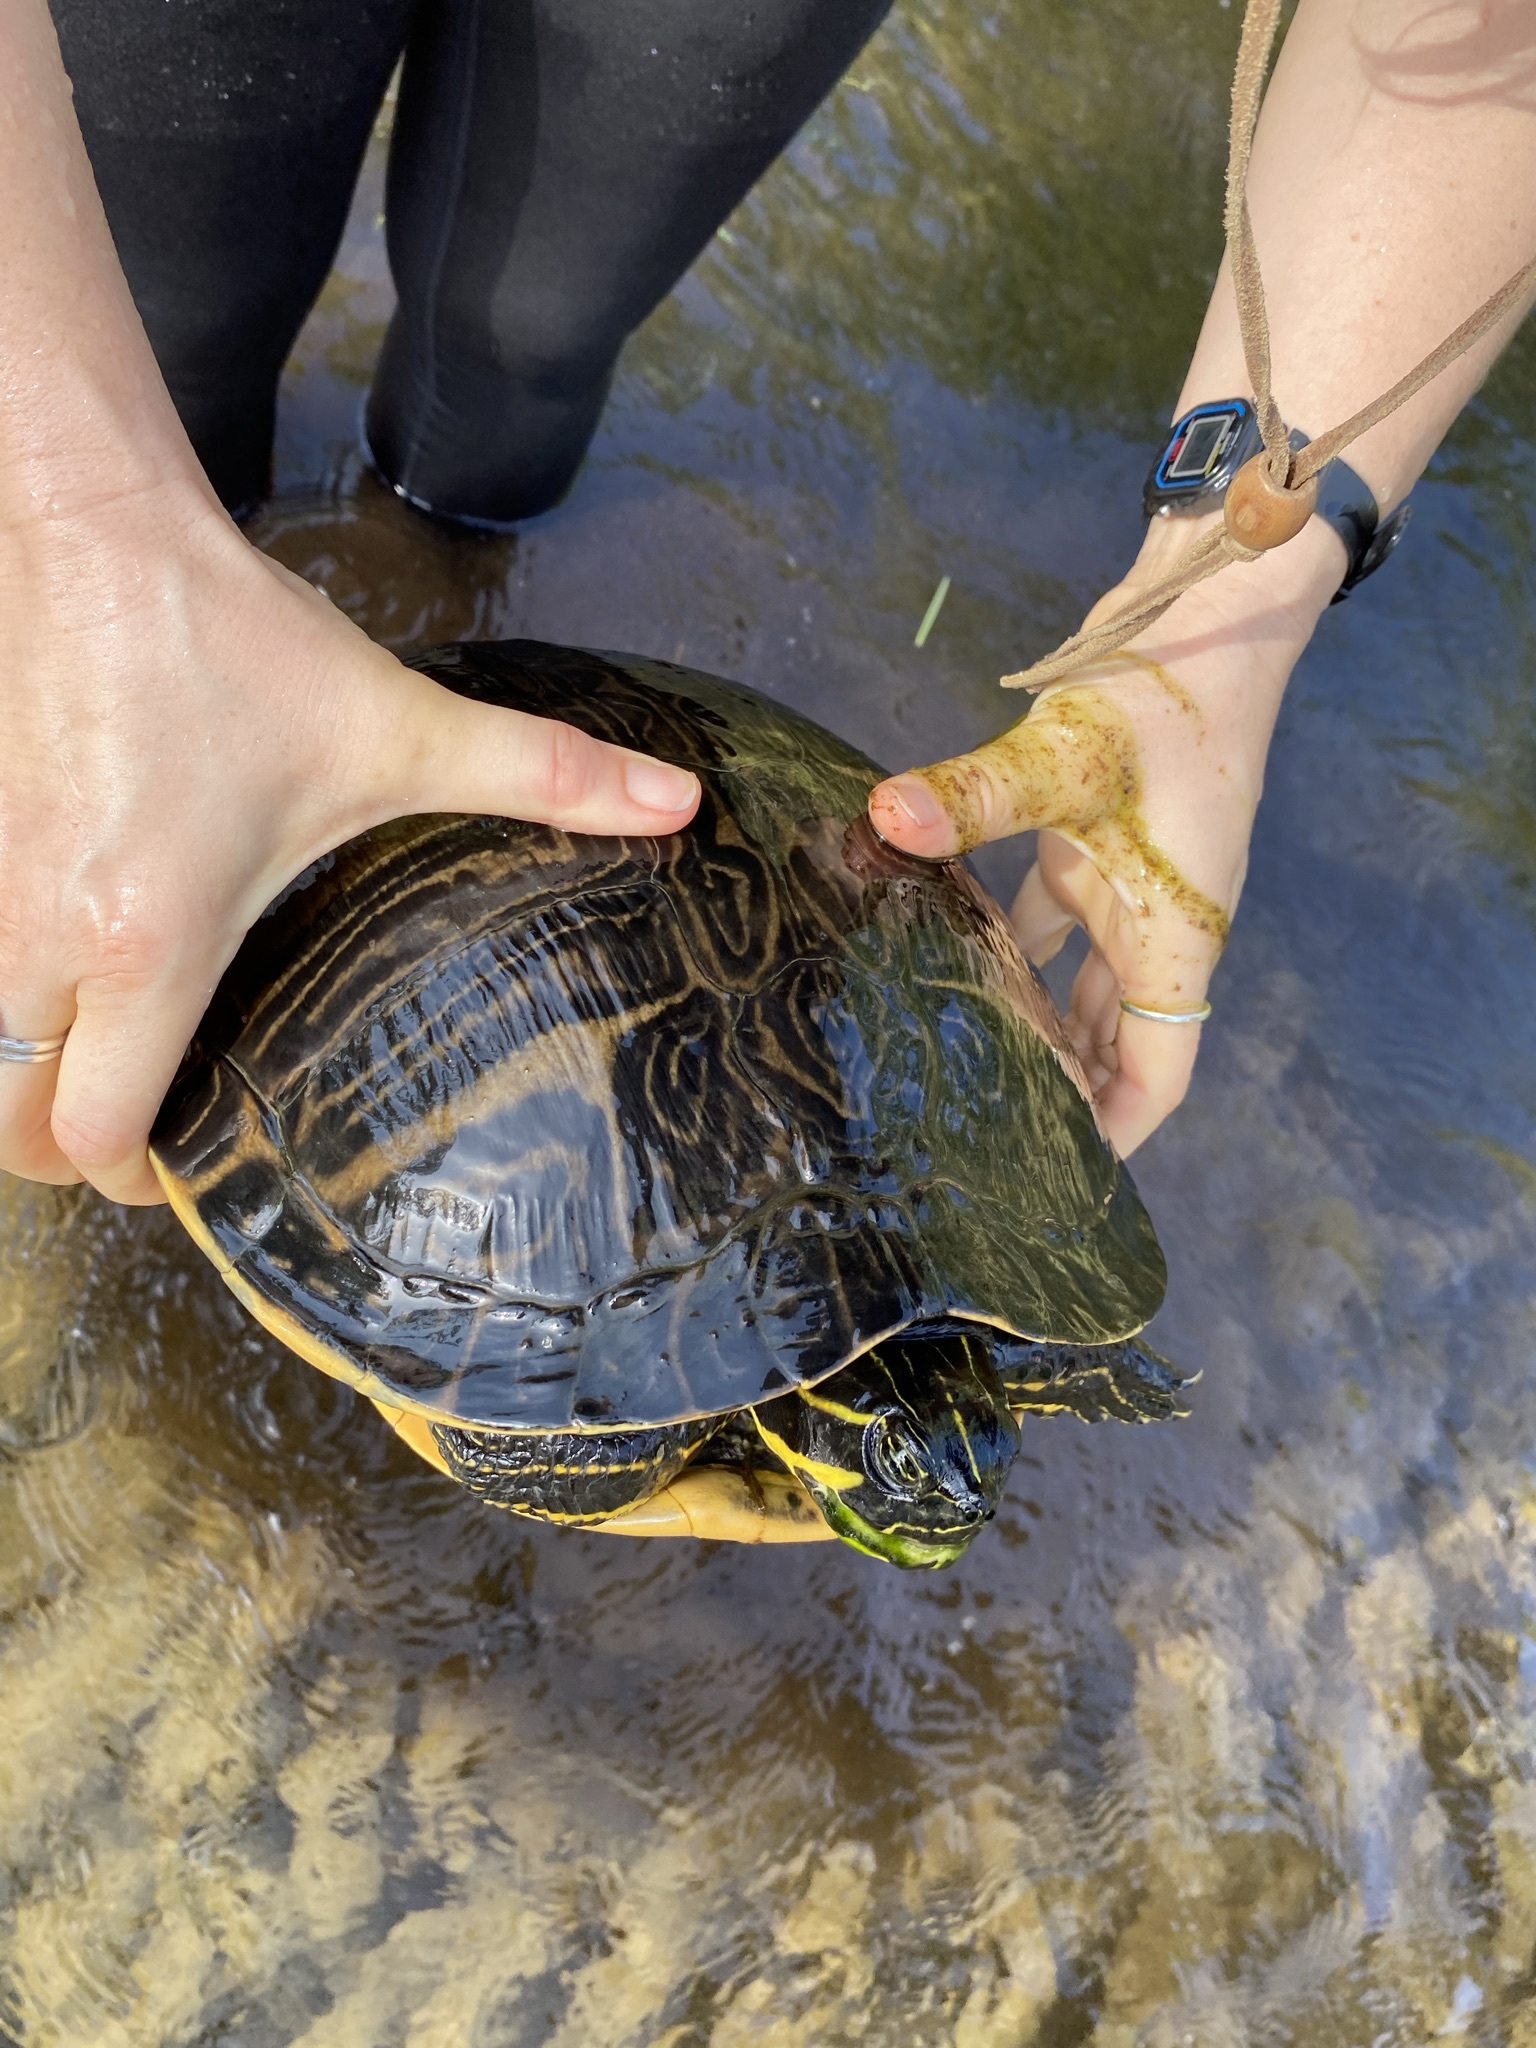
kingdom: Animalia
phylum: Chordata
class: Testudines
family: Emydidae
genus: Pseudemys
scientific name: Pseudemys concinna
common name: Eastern river cooter
